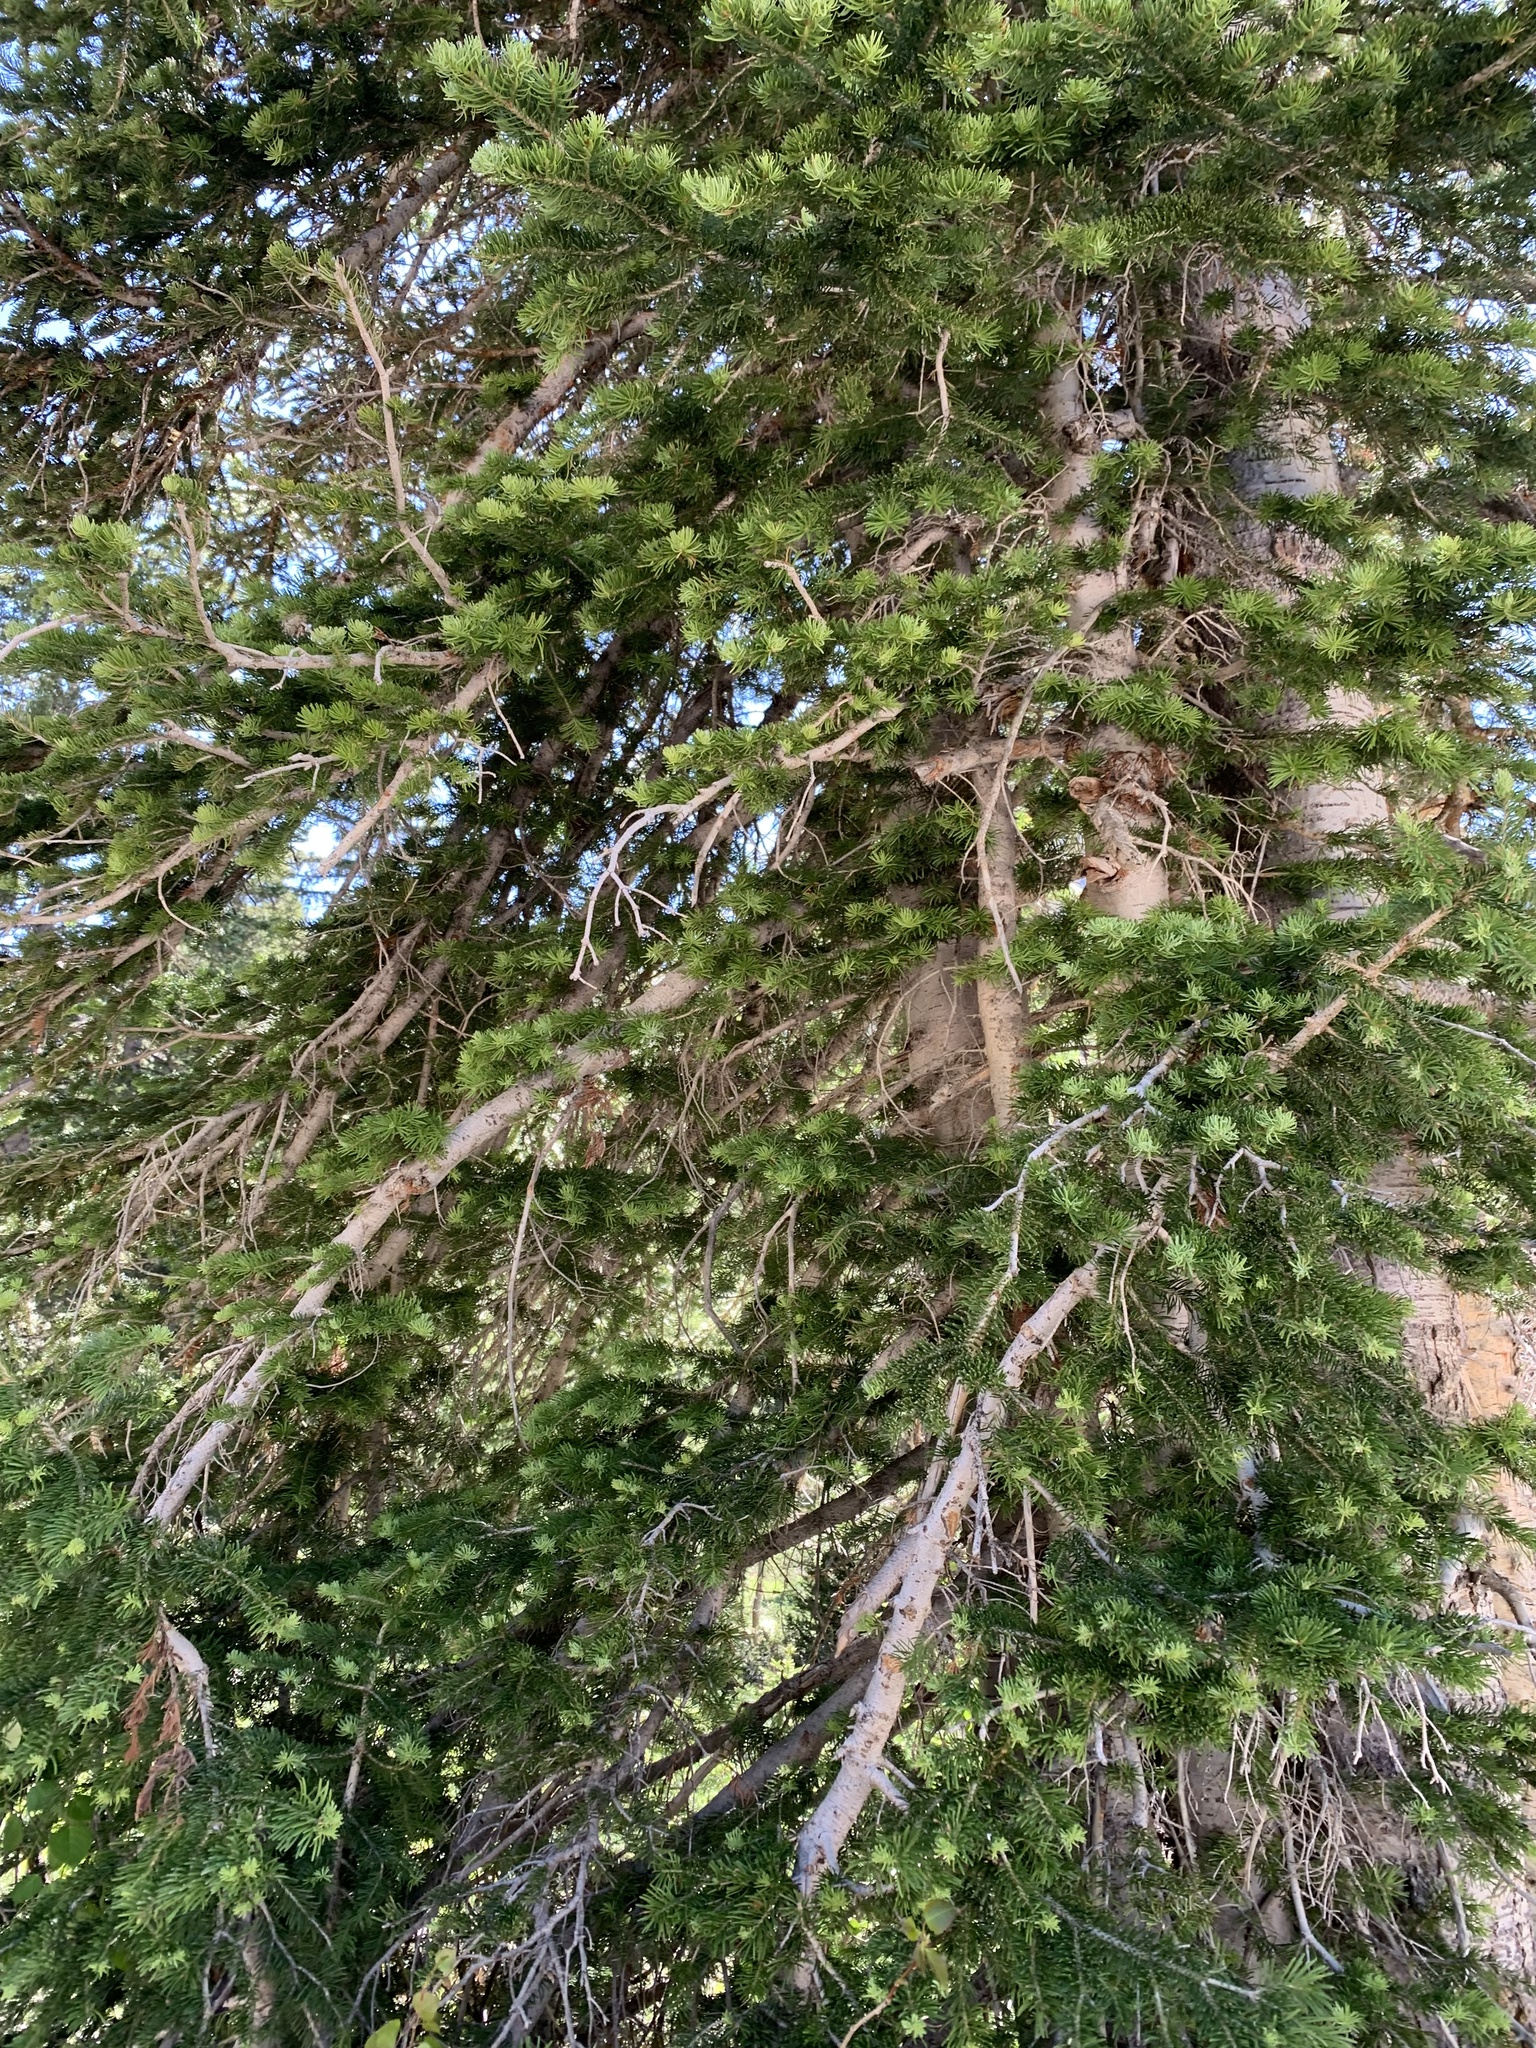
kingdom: Plantae
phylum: Tracheophyta
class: Pinopsida
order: Pinales
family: Pinaceae
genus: Abies
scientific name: Abies lasiocarpa
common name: Subalpine fir
